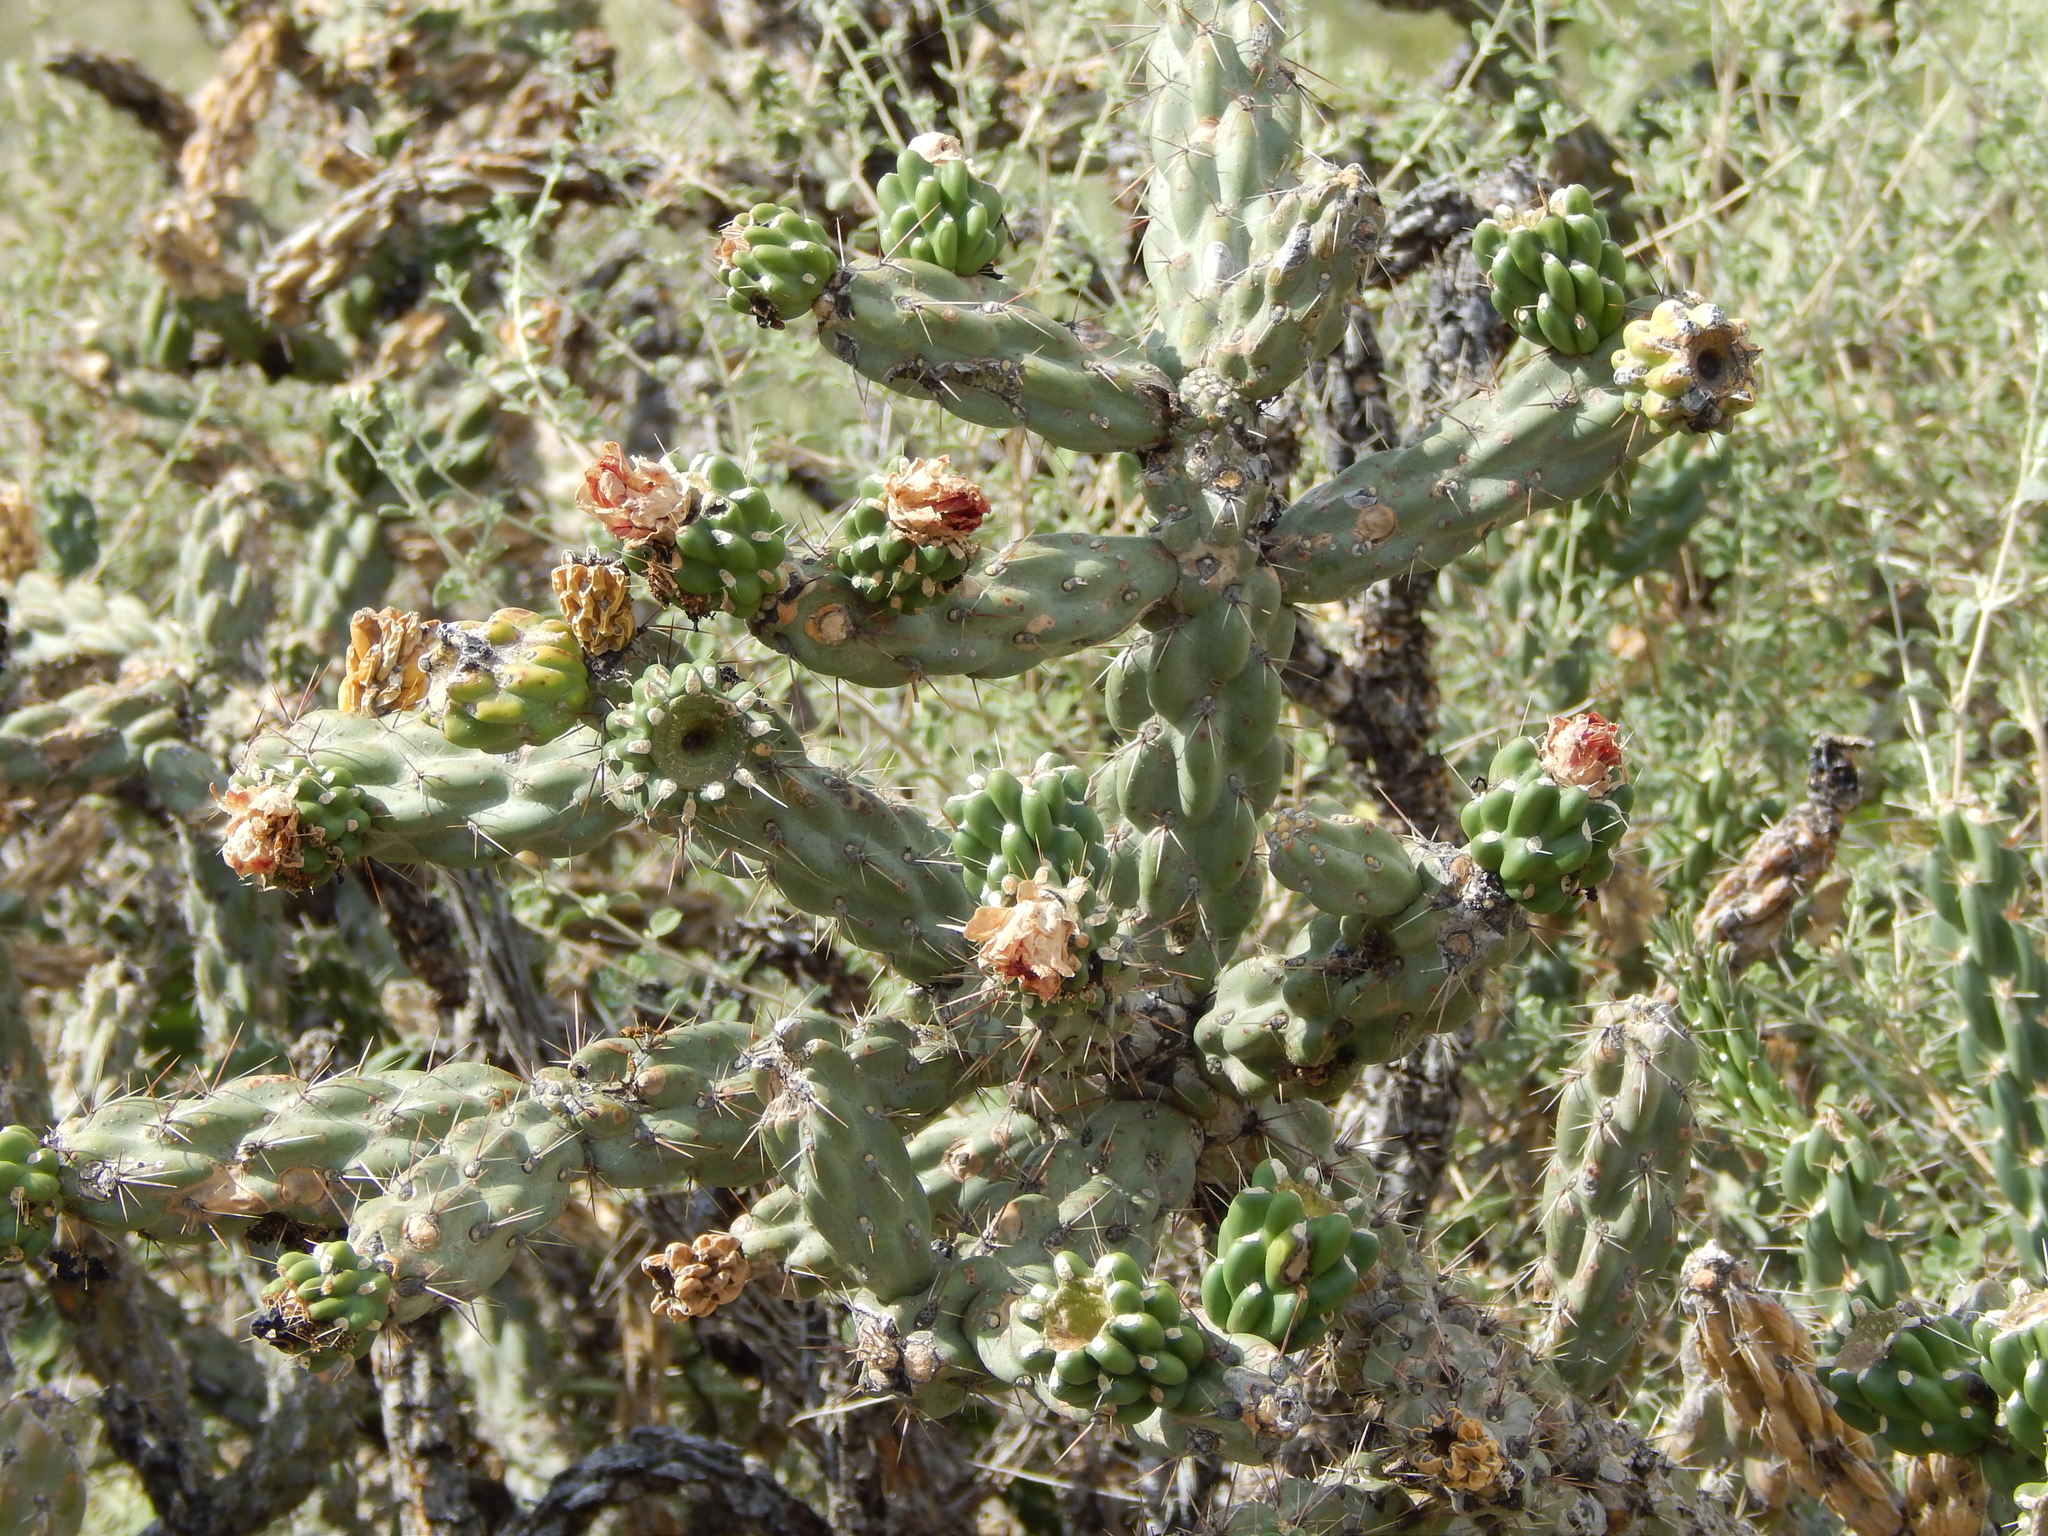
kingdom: Plantae
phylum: Tracheophyta
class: Magnoliopsida
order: Caryophyllales
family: Cactaceae
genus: Cylindropuntia
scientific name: Cylindropuntia imbricata
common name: Candelabrum cactus
